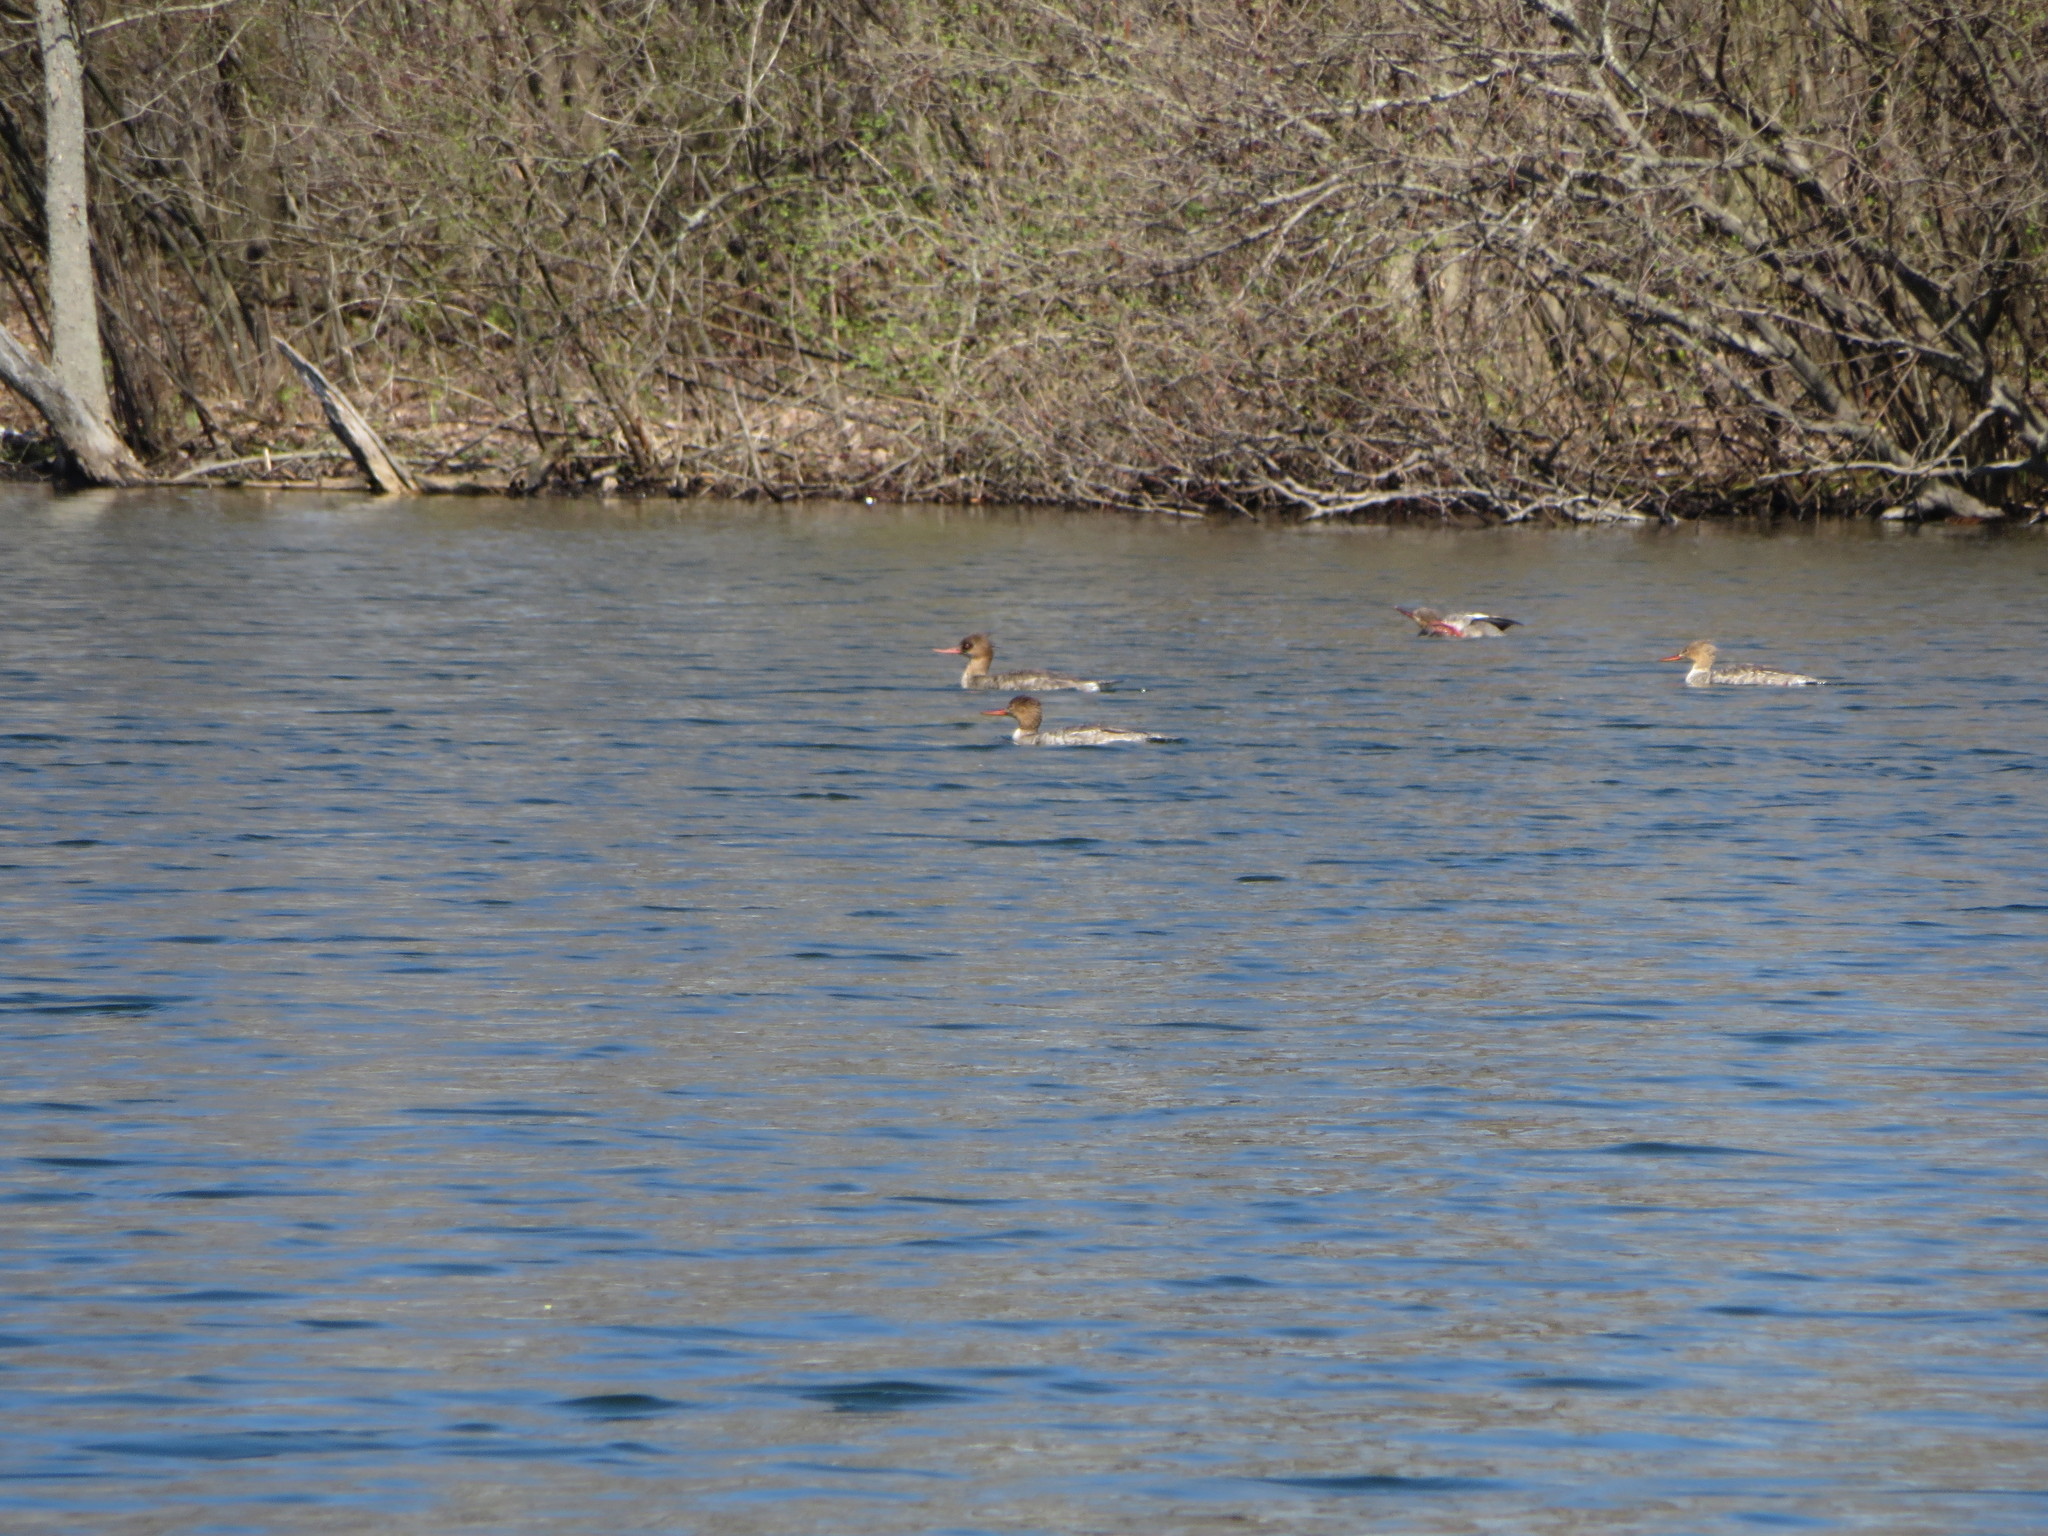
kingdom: Animalia
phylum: Chordata
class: Aves
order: Anseriformes
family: Anatidae
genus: Mergus
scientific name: Mergus serrator
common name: Red-breasted merganser
